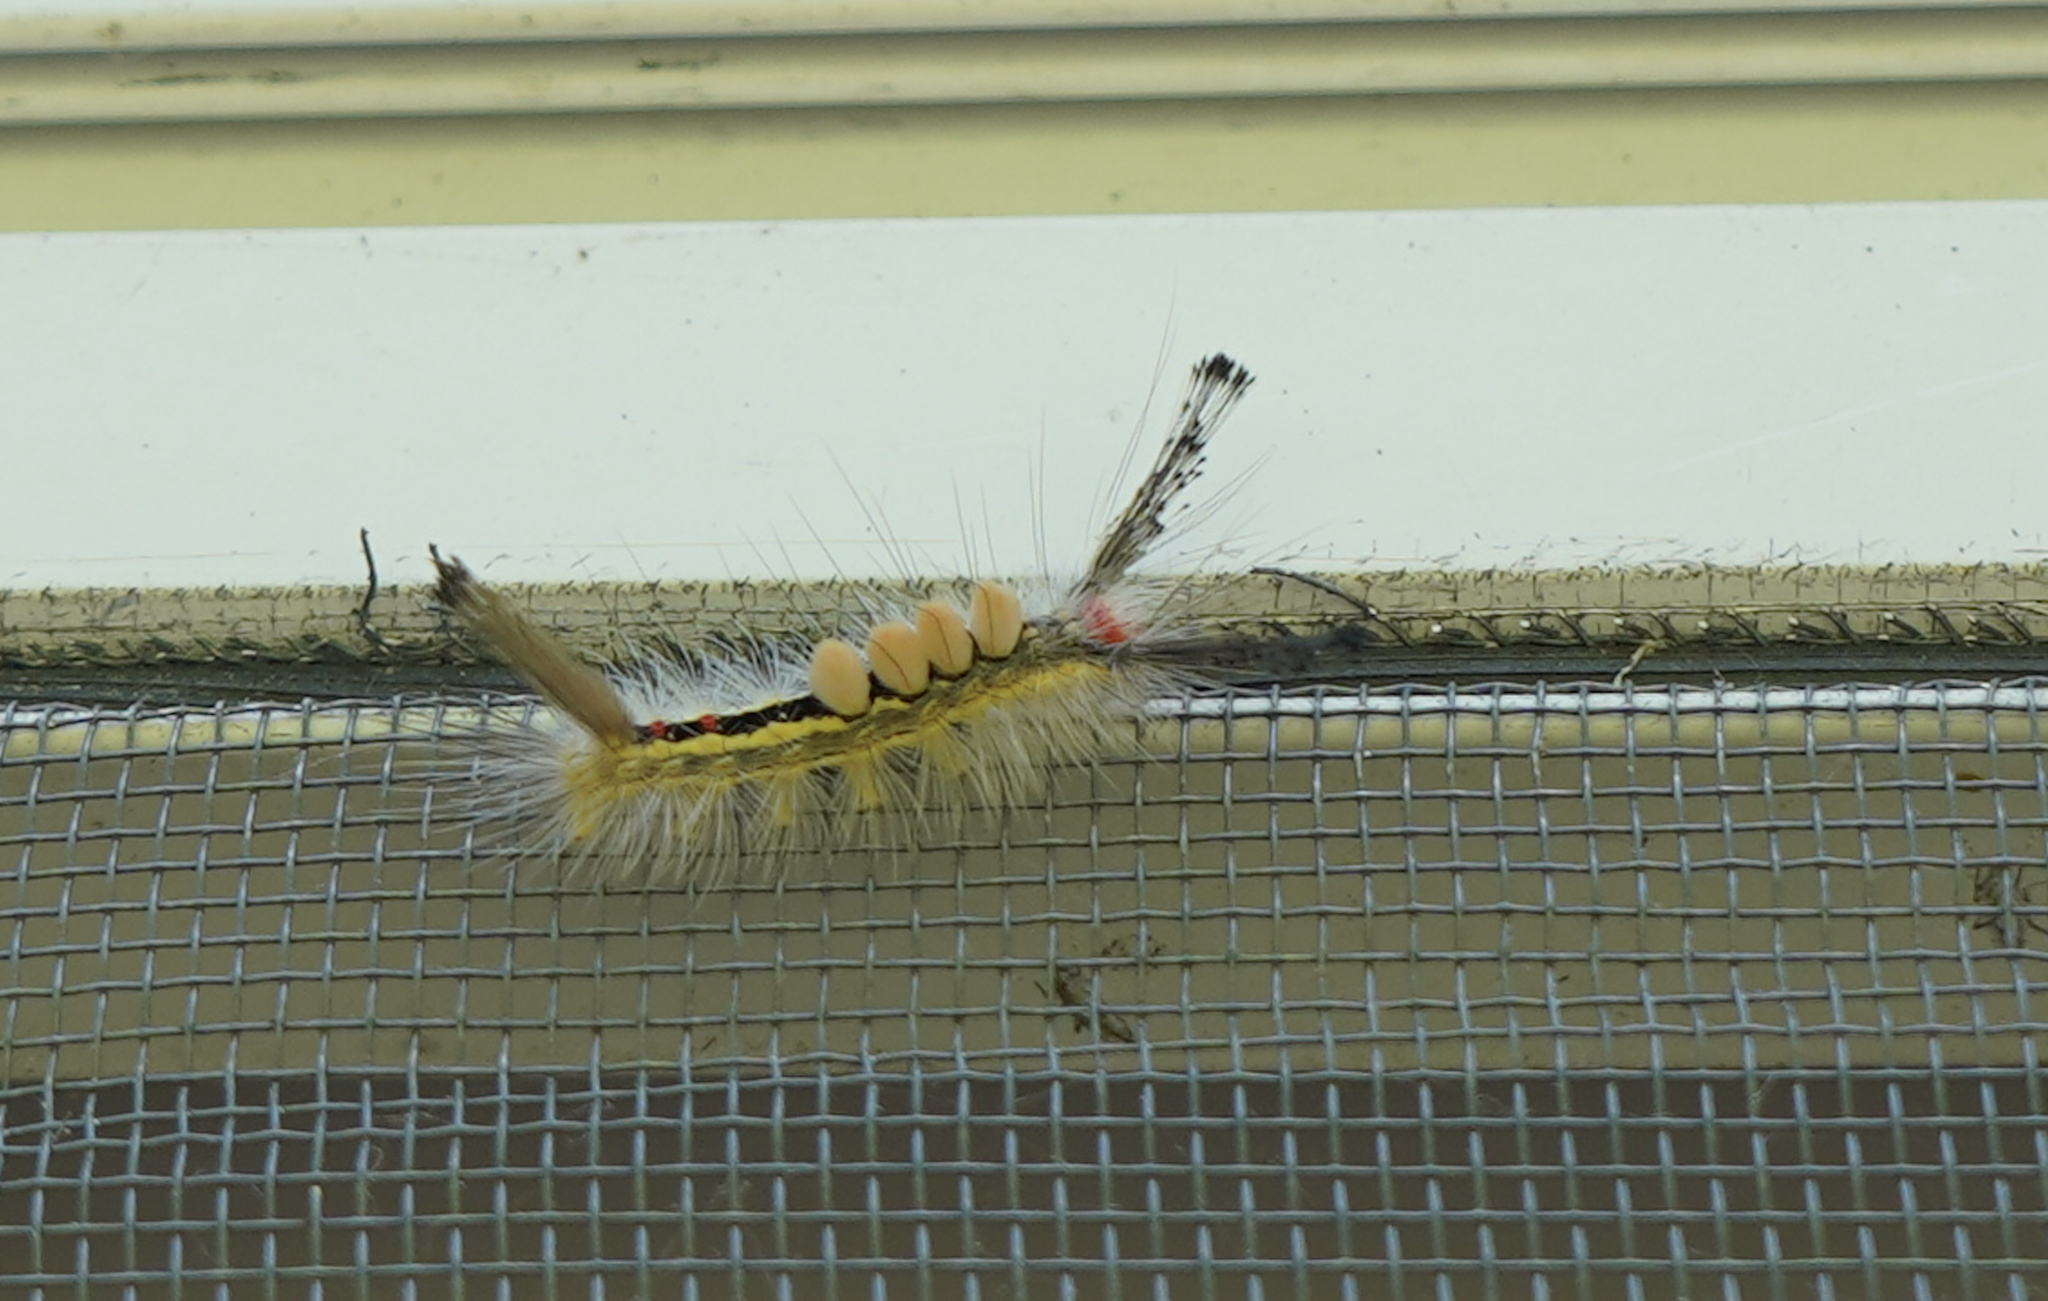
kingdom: Animalia
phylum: Arthropoda
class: Insecta
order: Lepidoptera
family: Erebidae
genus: Orgyia
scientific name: Orgyia leucostigma
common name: White-marked tussock moth
